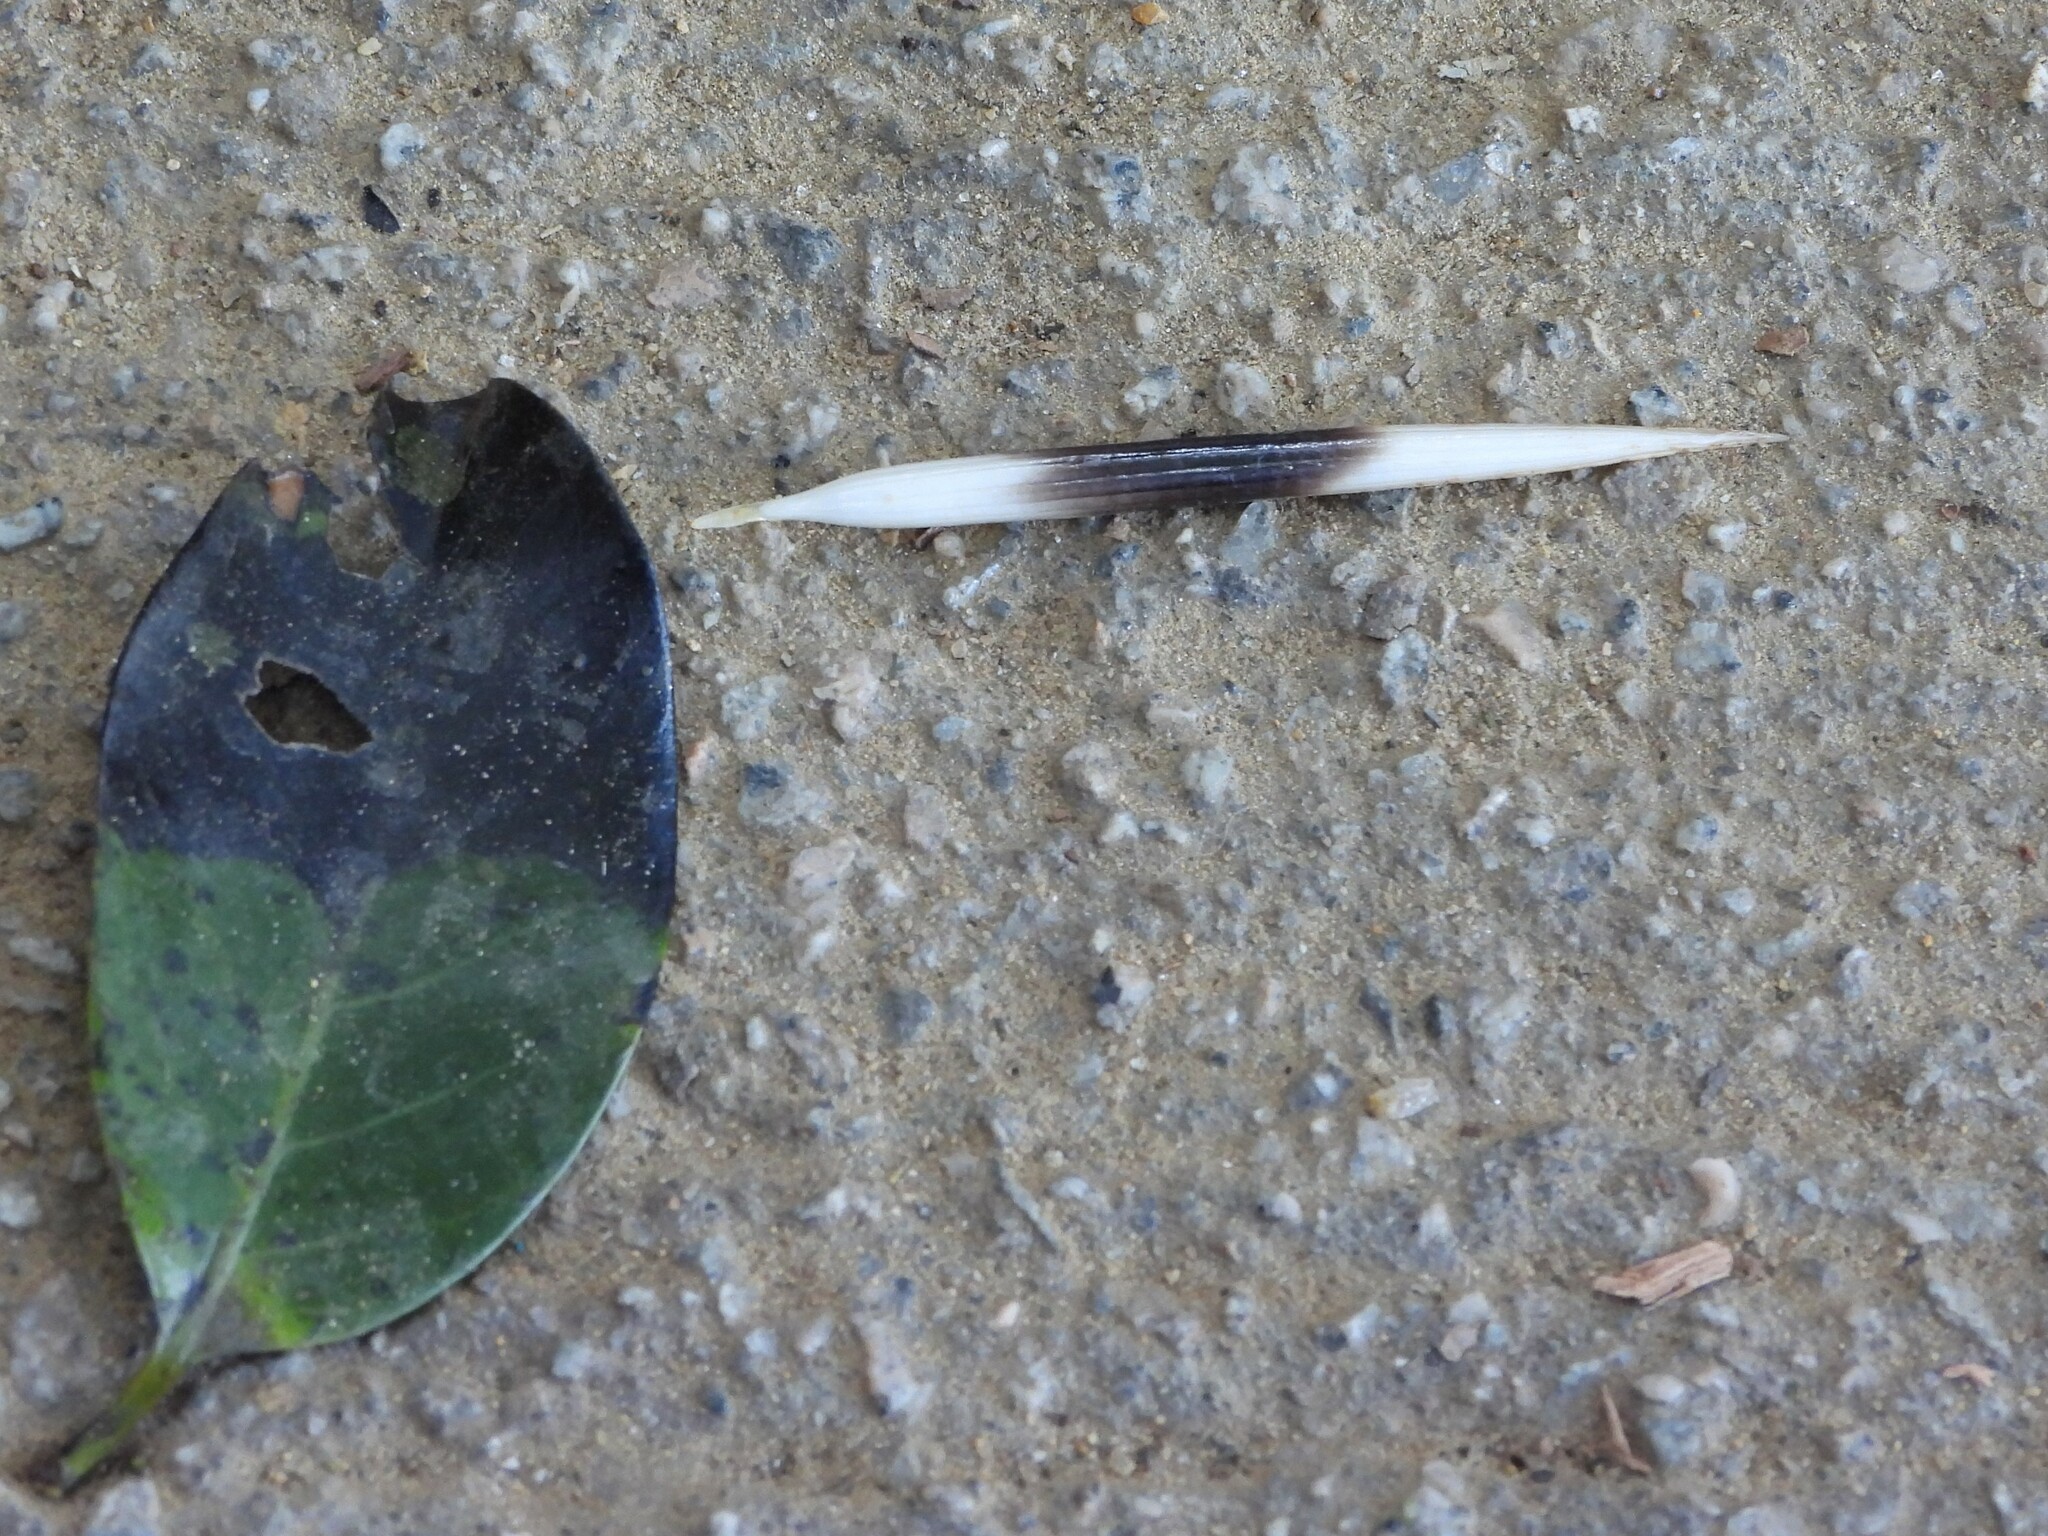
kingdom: Animalia
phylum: Chordata
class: Mammalia
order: Rodentia
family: Hystricidae
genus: Hystrix
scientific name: Hystrix brachyura
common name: Malayan porcupine
